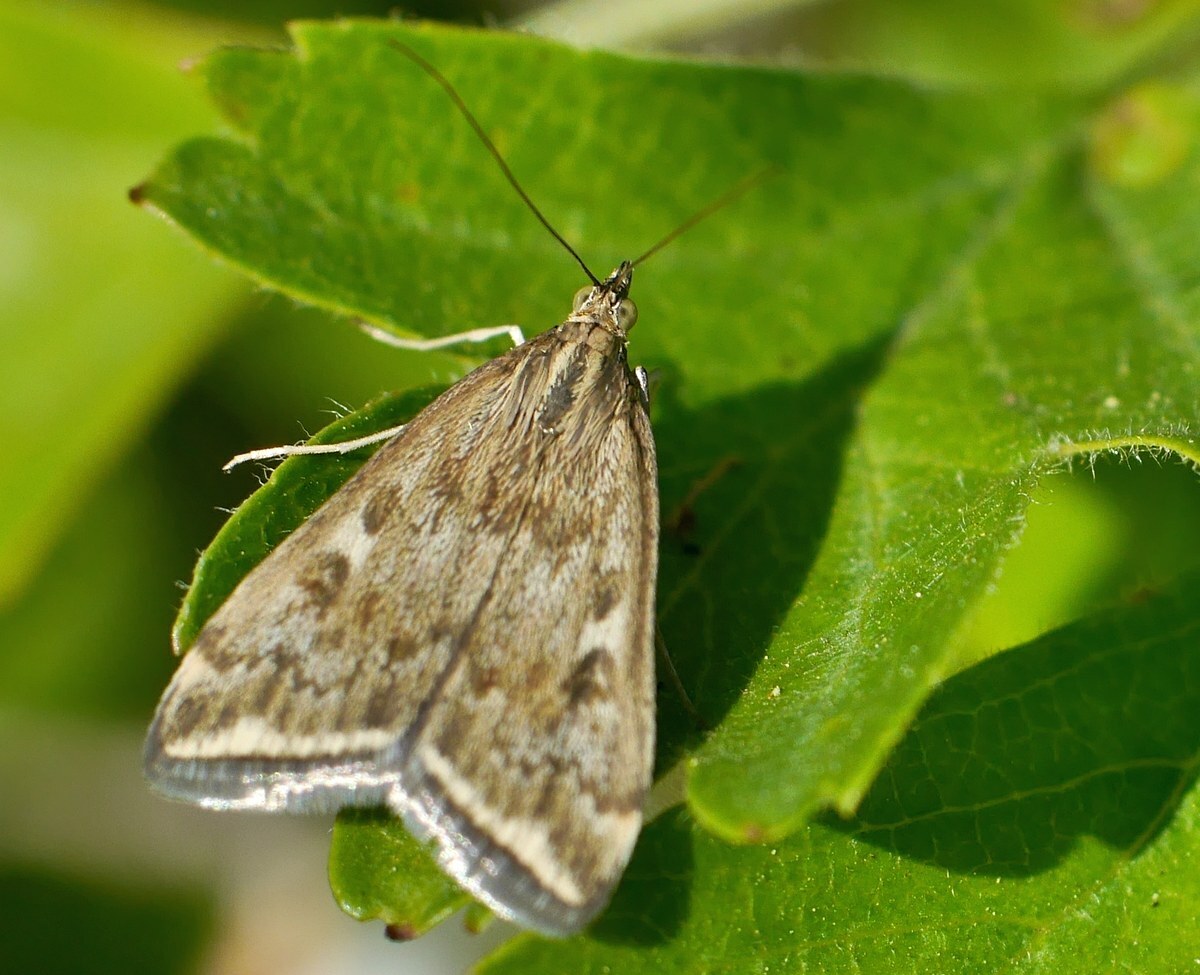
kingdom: Animalia
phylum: Arthropoda
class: Insecta
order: Lepidoptera
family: Crambidae
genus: Loxostege
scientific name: Loxostege sticticalis
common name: Crambid moth
